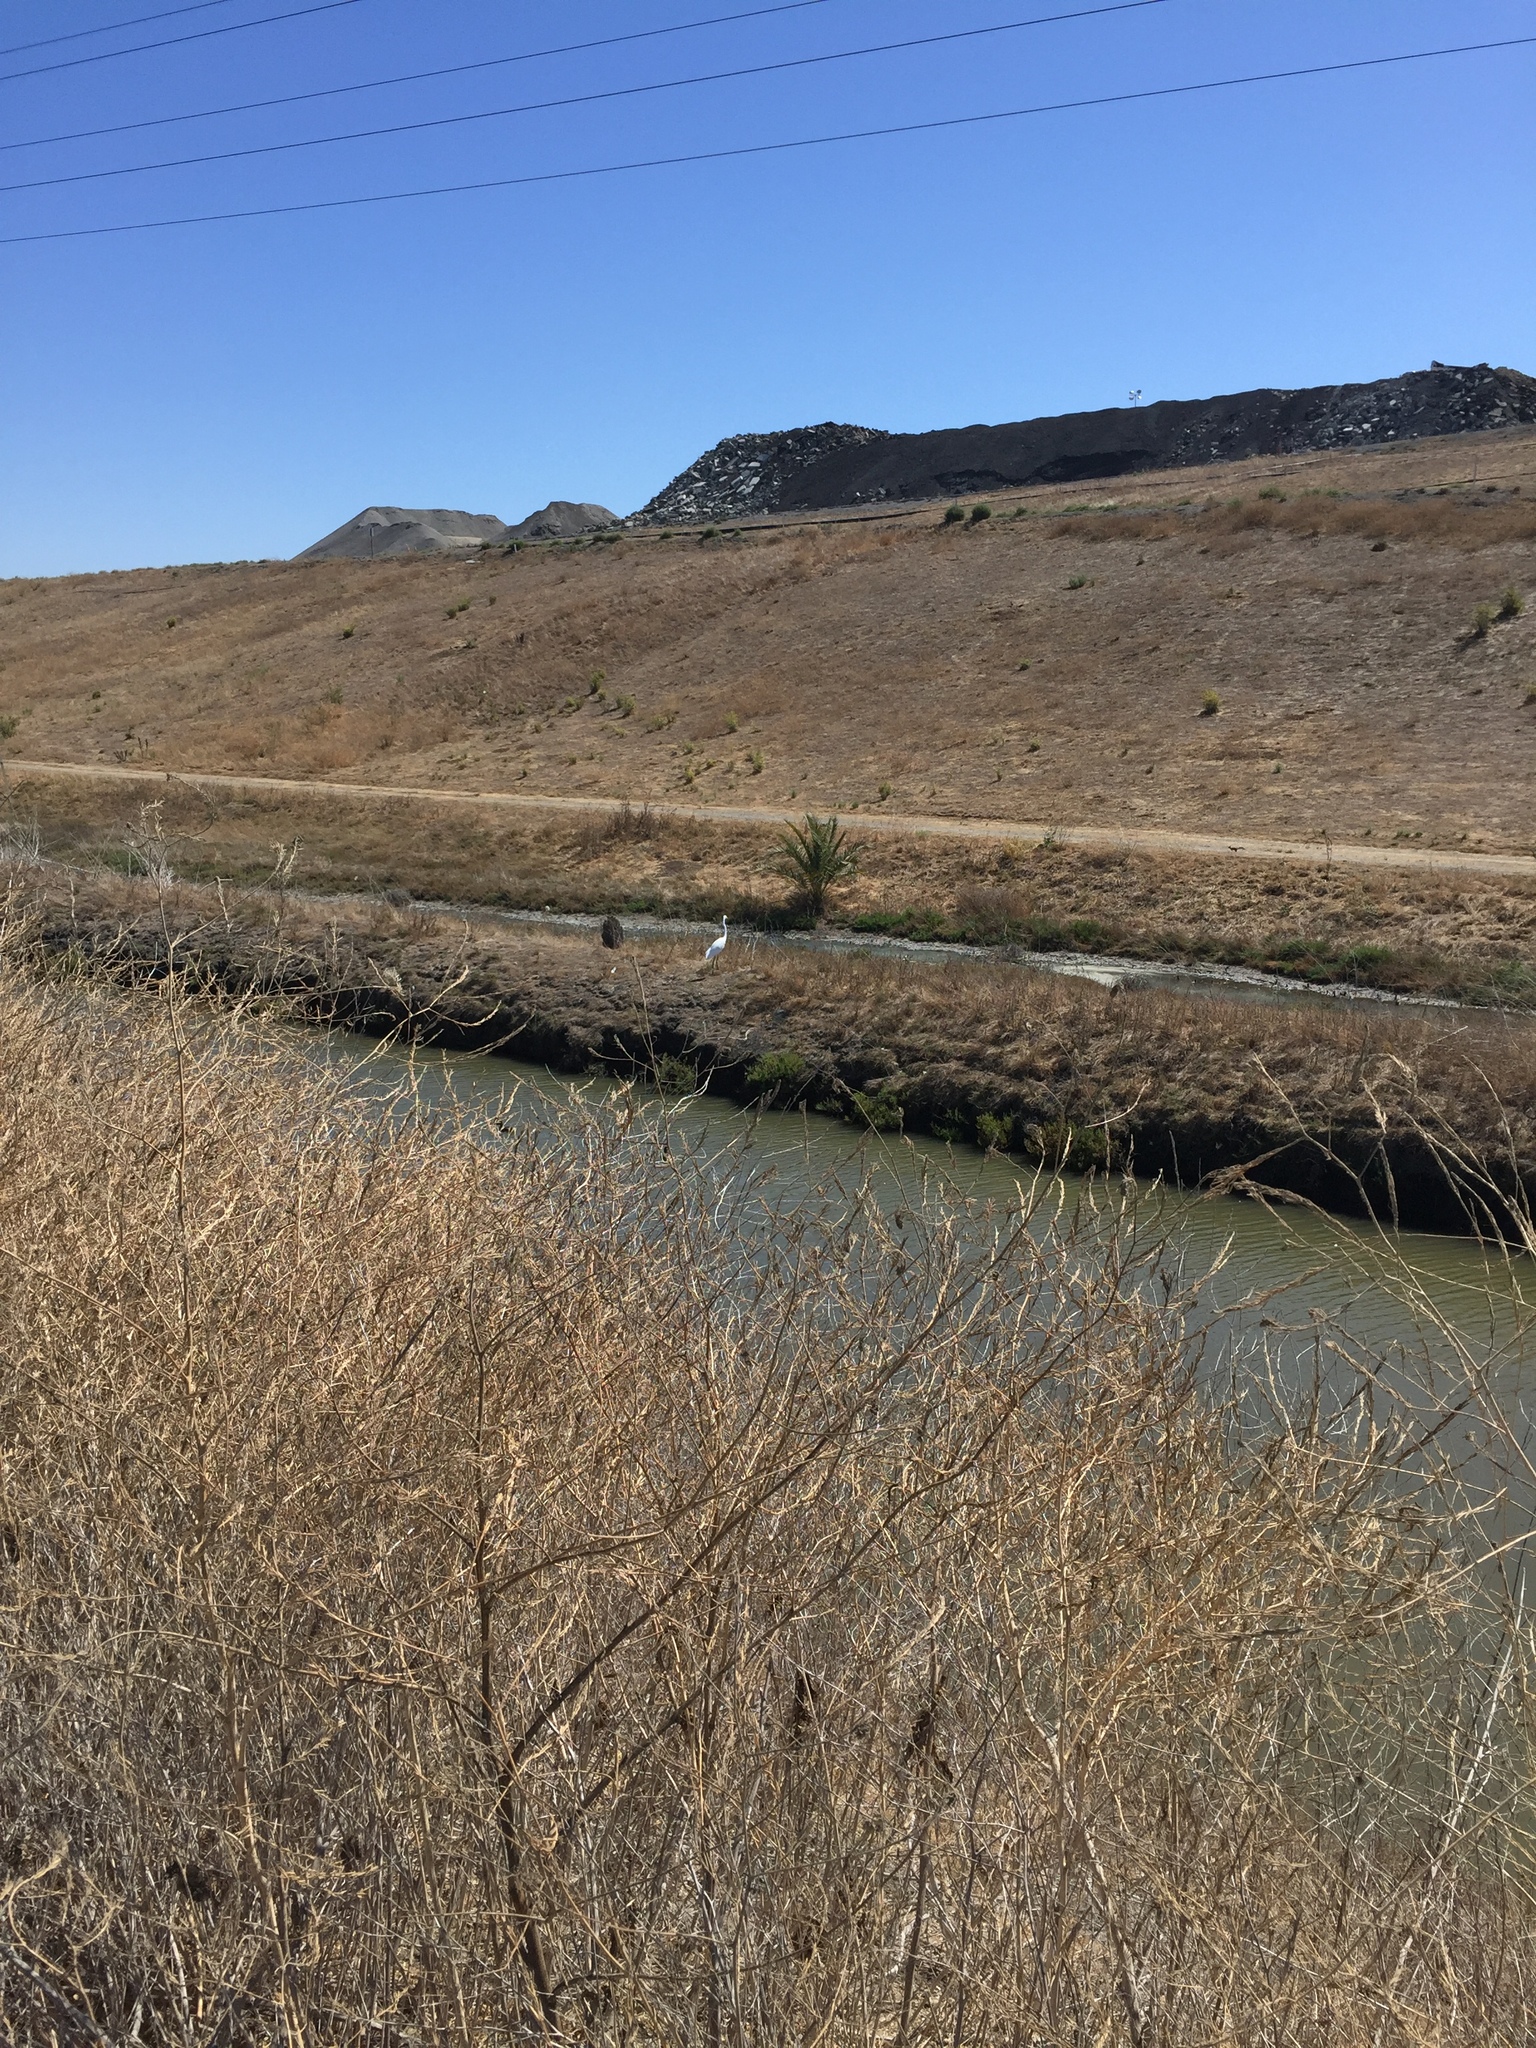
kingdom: Animalia
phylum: Chordata
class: Aves
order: Pelecaniformes
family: Ardeidae
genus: Ardea
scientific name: Ardea alba
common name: Great egret
